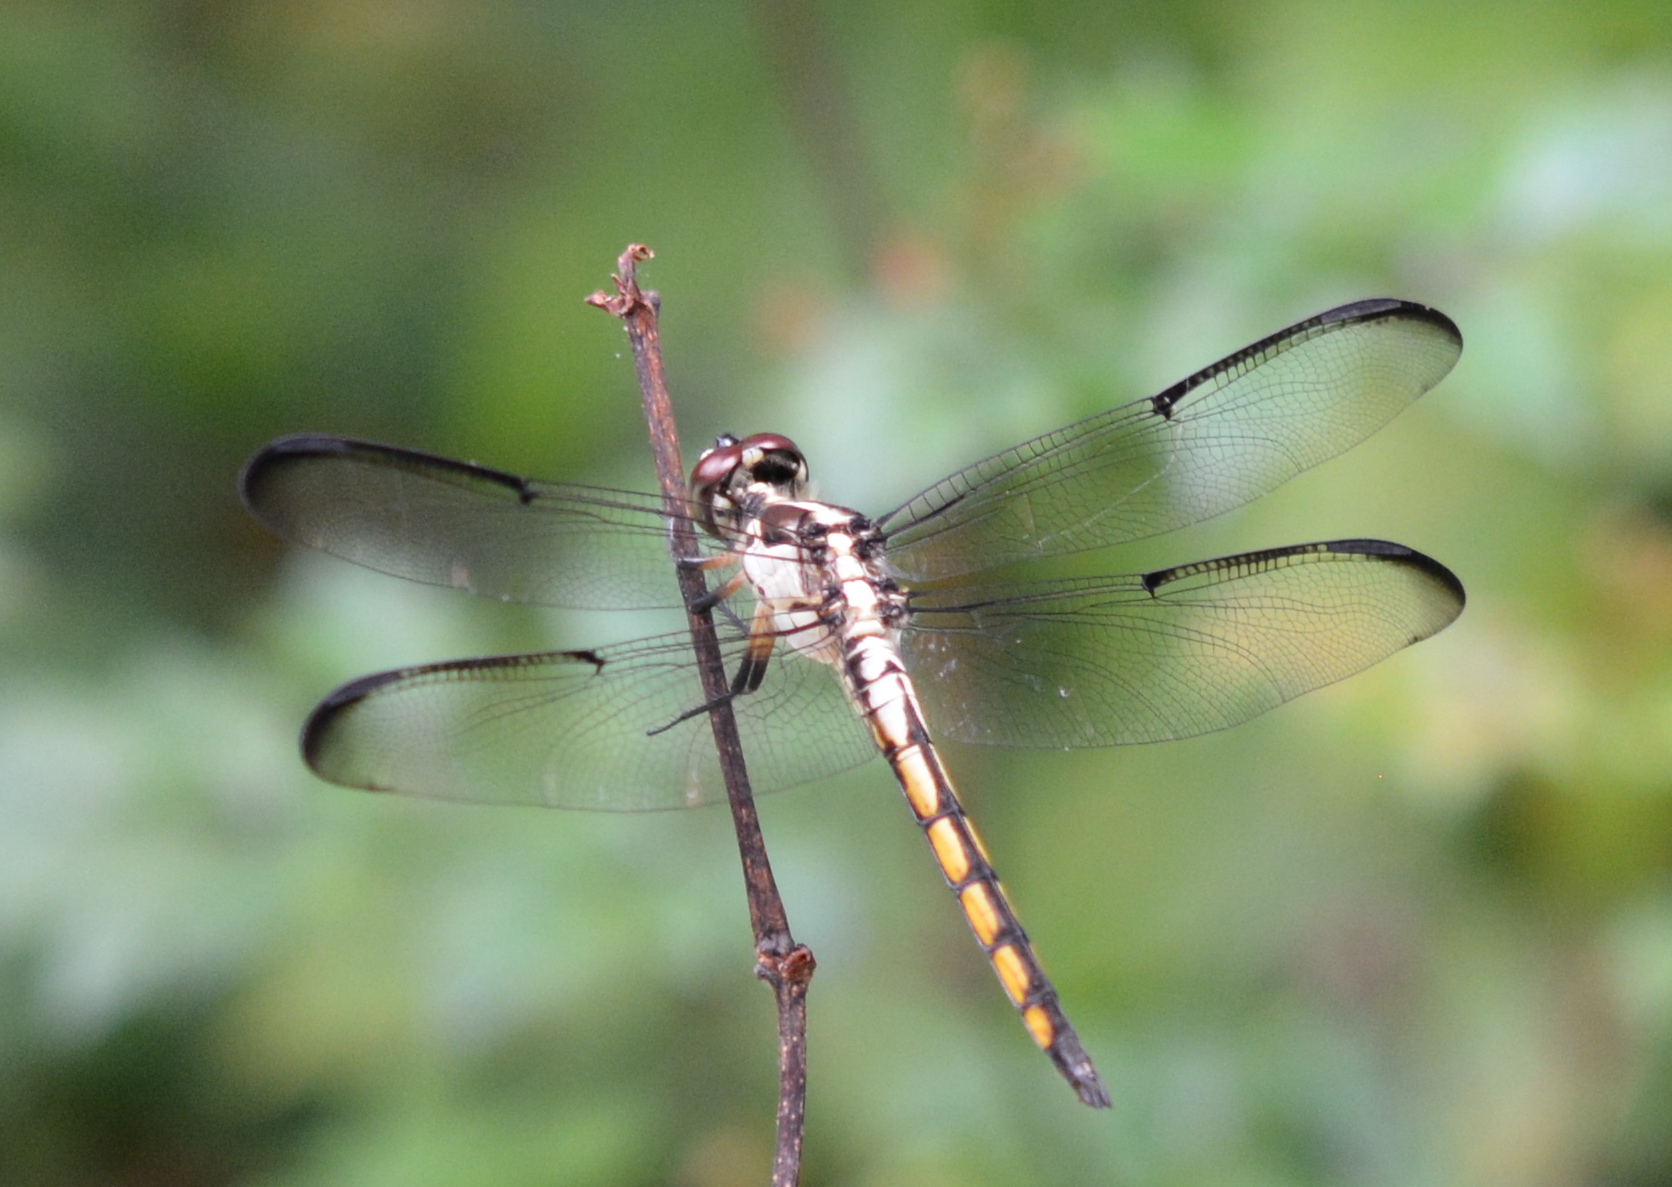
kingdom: Animalia
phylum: Arthropoda
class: Insecta
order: Odonata
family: Libellulidae
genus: Libellula
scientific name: Libellula vibrans
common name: Great blue skimmer
